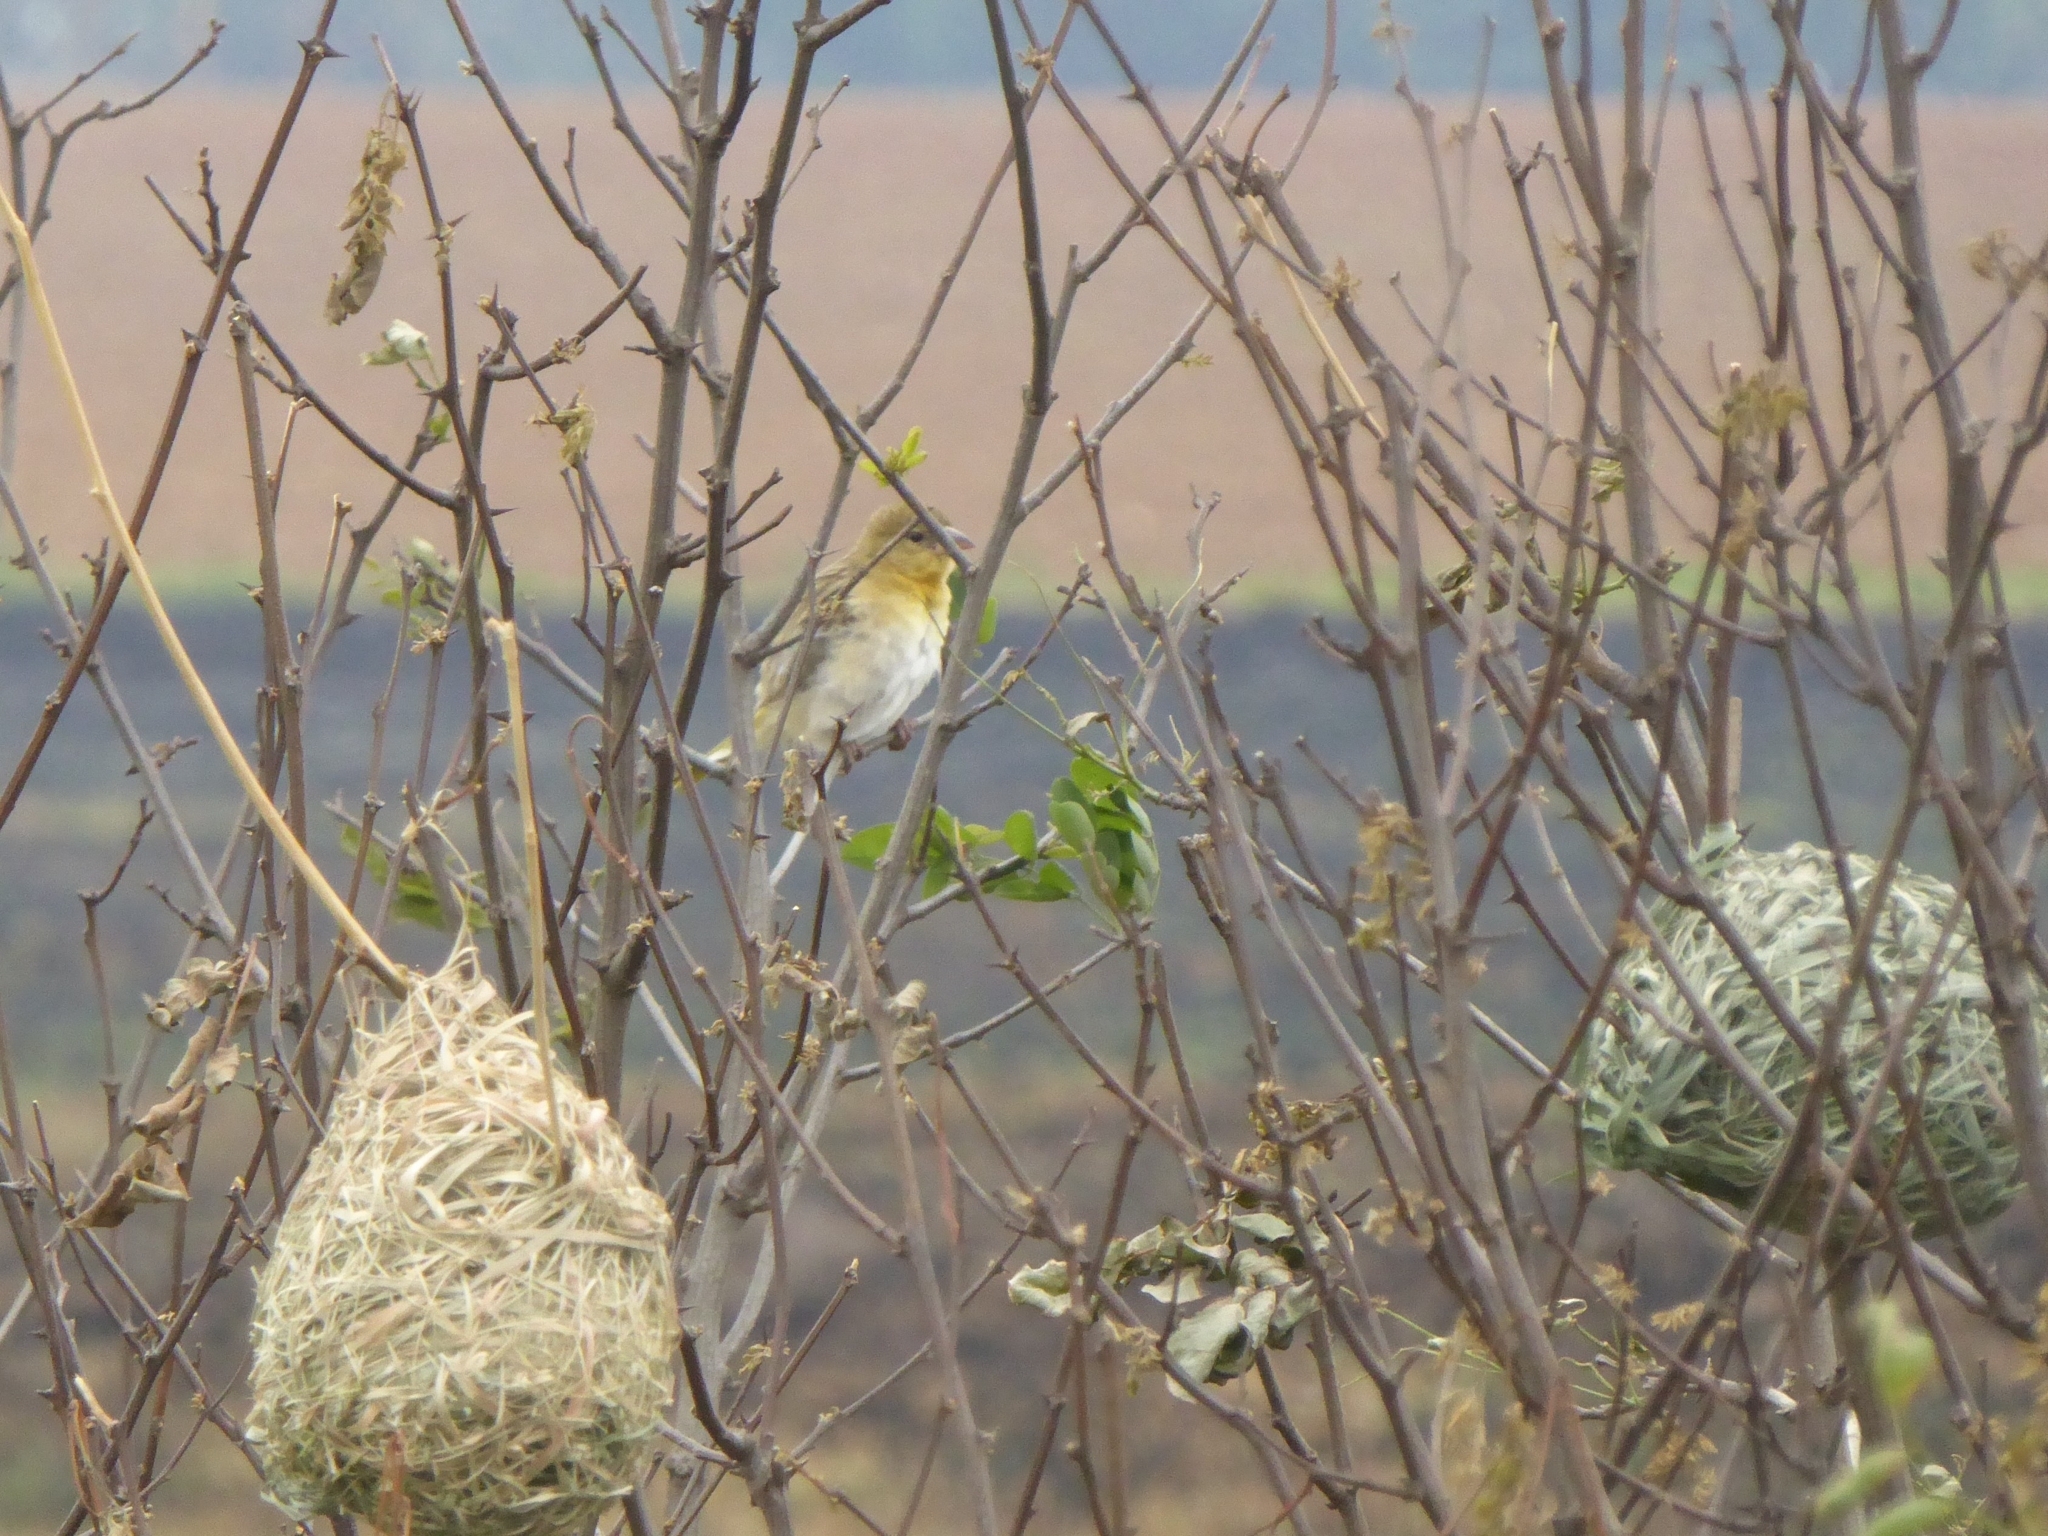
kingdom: Animalia
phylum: Chordata
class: Aves
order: Passeriformes
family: Ploceidae
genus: Ploceus
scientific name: Ploceus velatus
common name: Southern masked weaver
